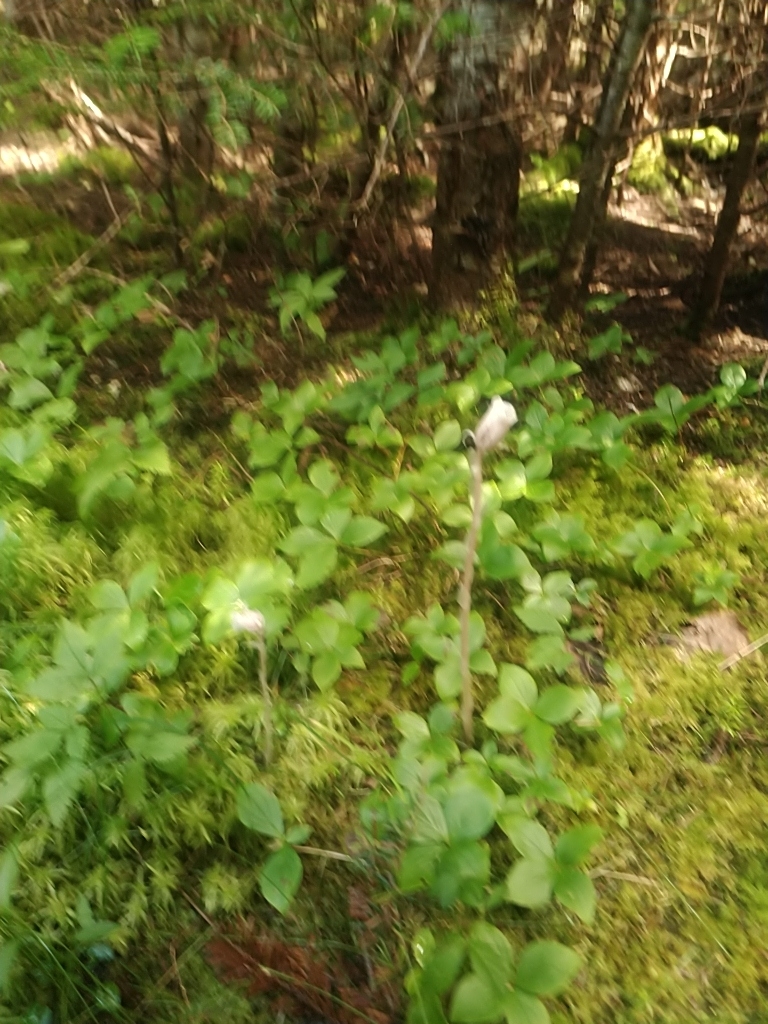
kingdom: Plantae
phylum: Tracheophyta
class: Magnoliopsida
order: Ericales
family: Ericaceae
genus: Monotropa
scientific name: Monotropa uniflora
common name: Convulsion root
